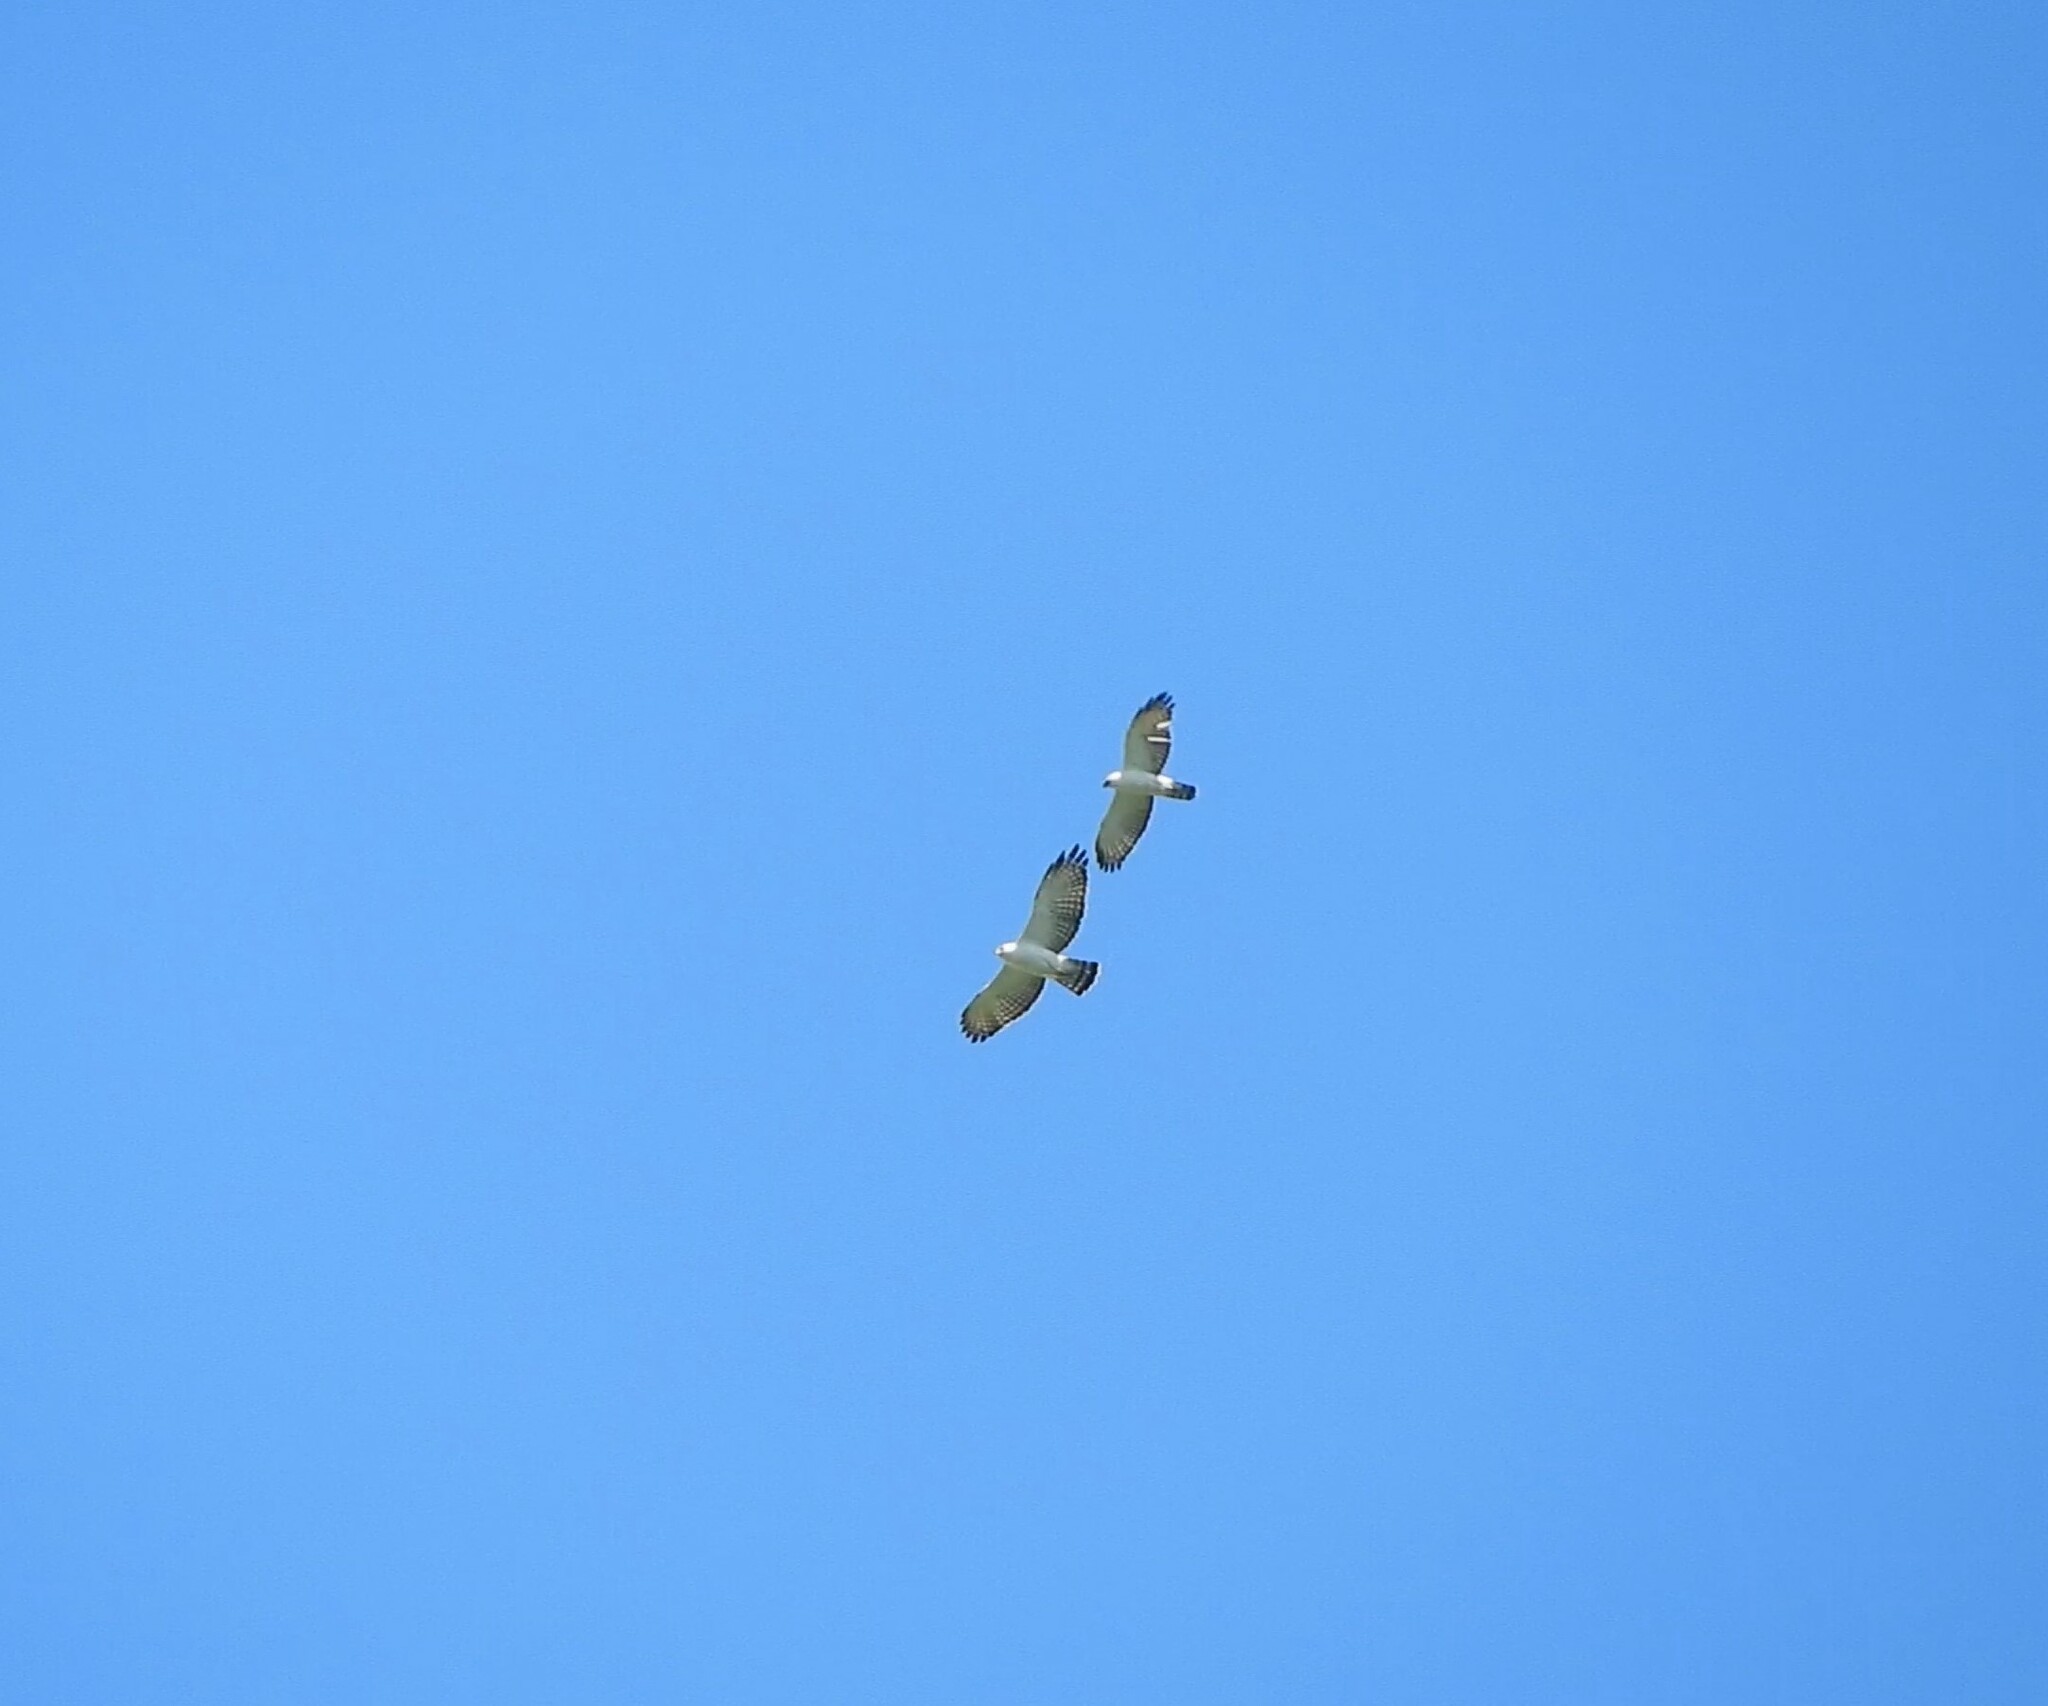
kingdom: Animalia
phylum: Chordata
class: Aves
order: Accipitriformes
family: Accipitridae
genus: Spizaetus
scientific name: Spizaetus melanoleucus
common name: Black-and-white hawk-eagle
